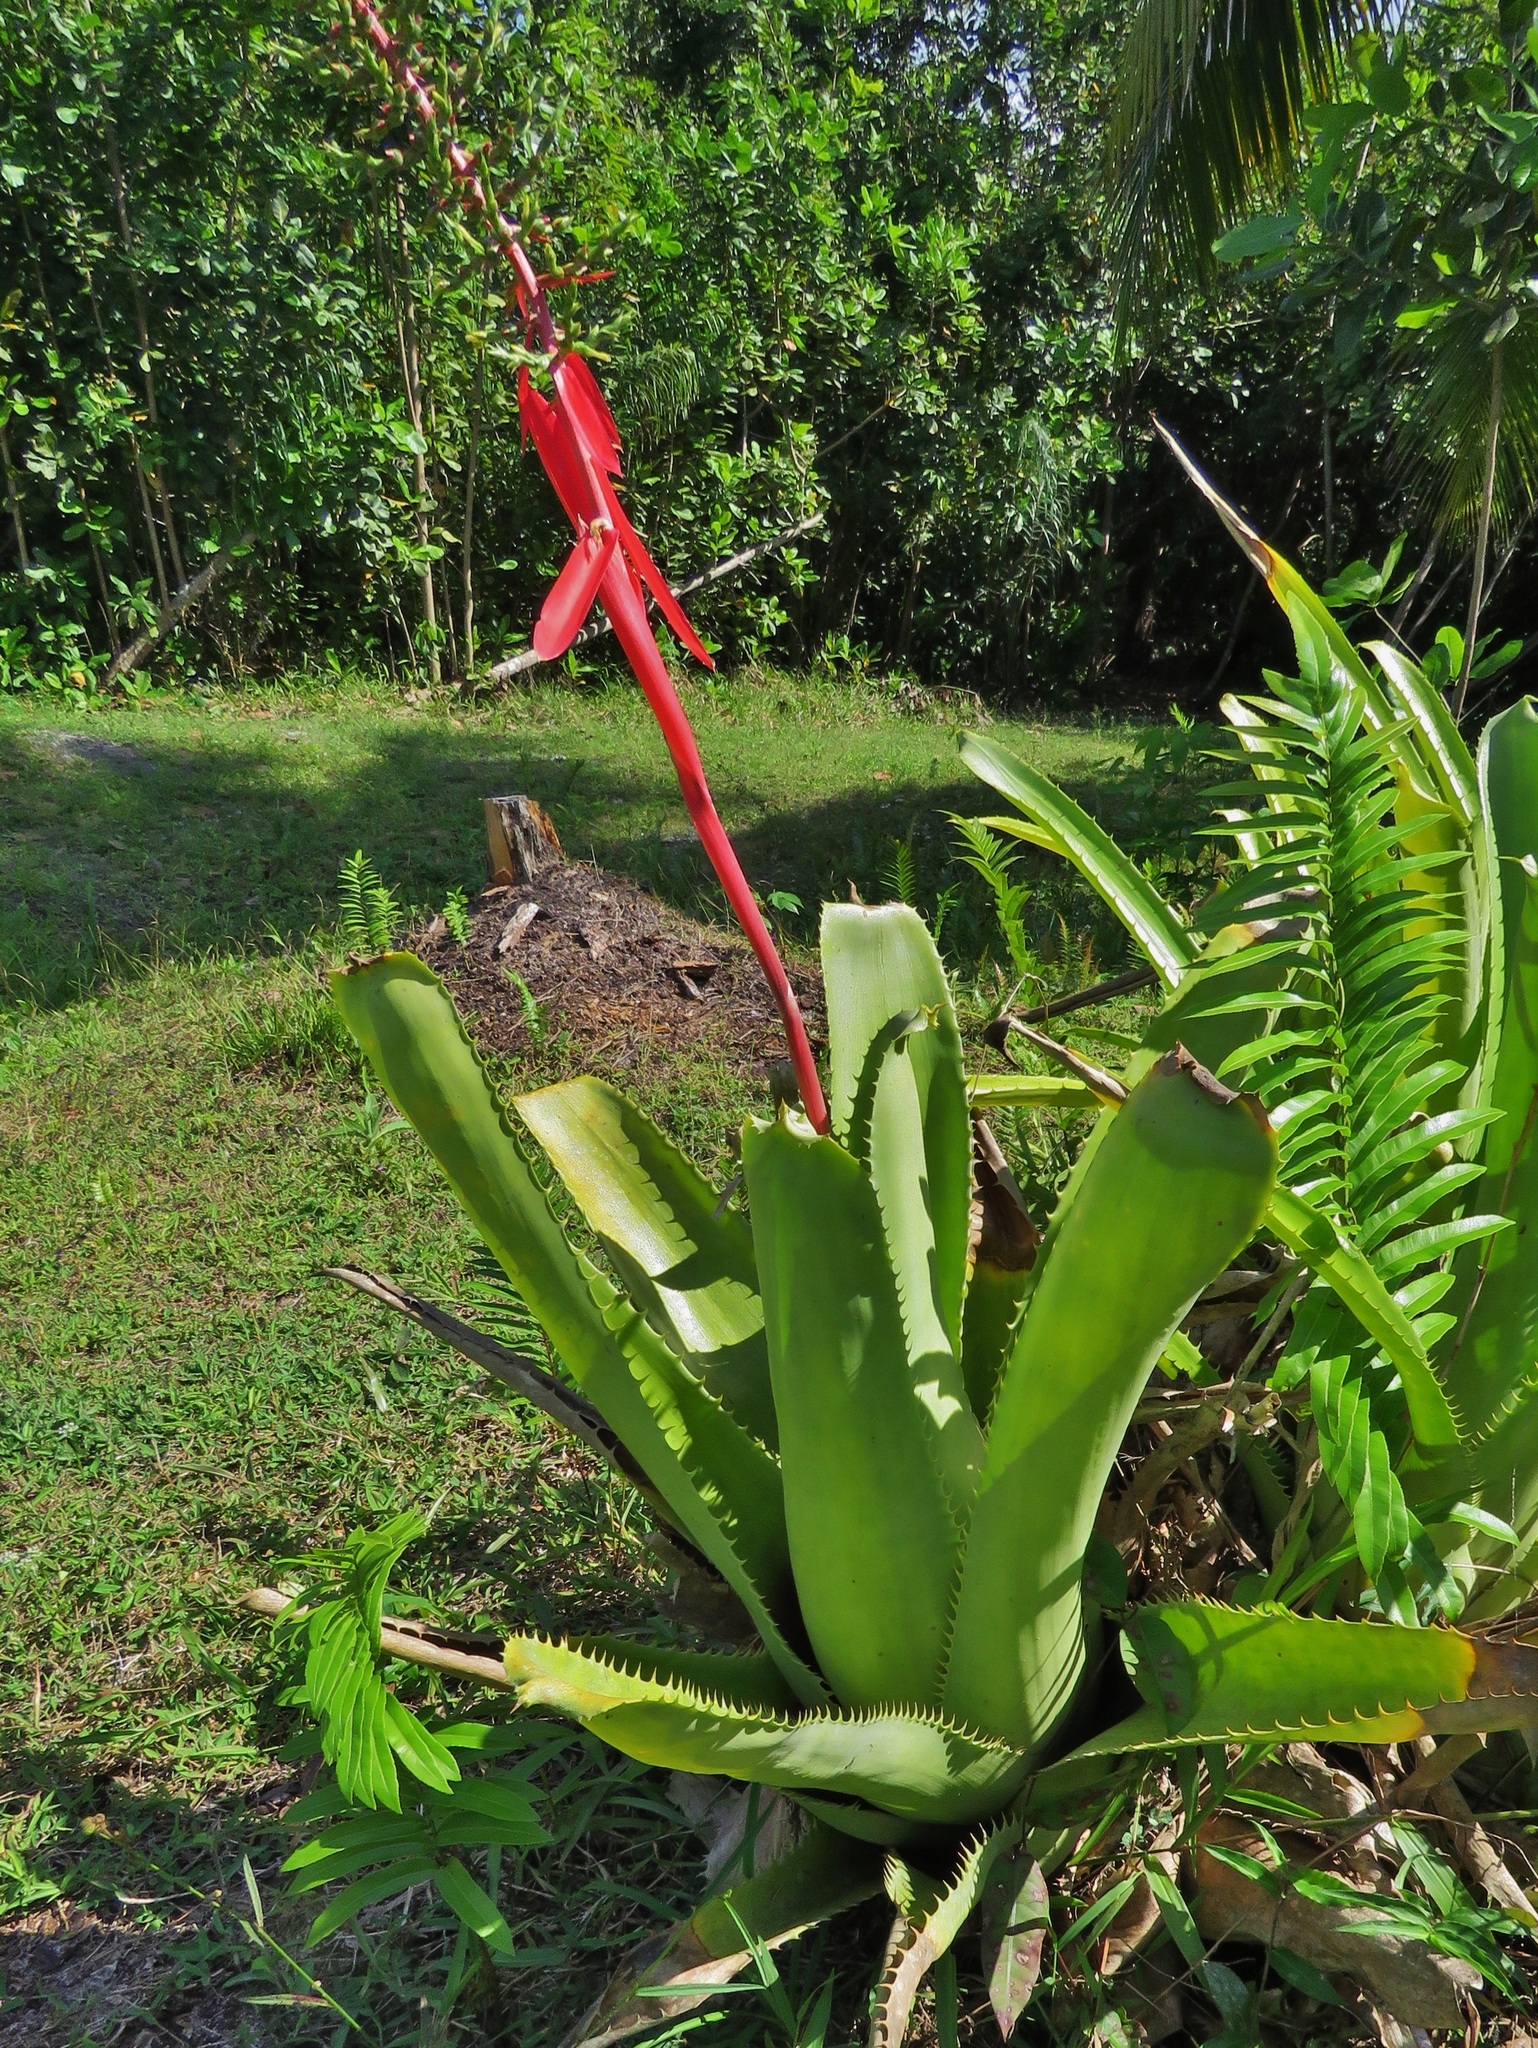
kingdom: Plantae
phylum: Tracheophyta
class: Liliopsida
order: Poales
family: Bromeliaceae
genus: Aechmea
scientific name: Aechmea bracteata
